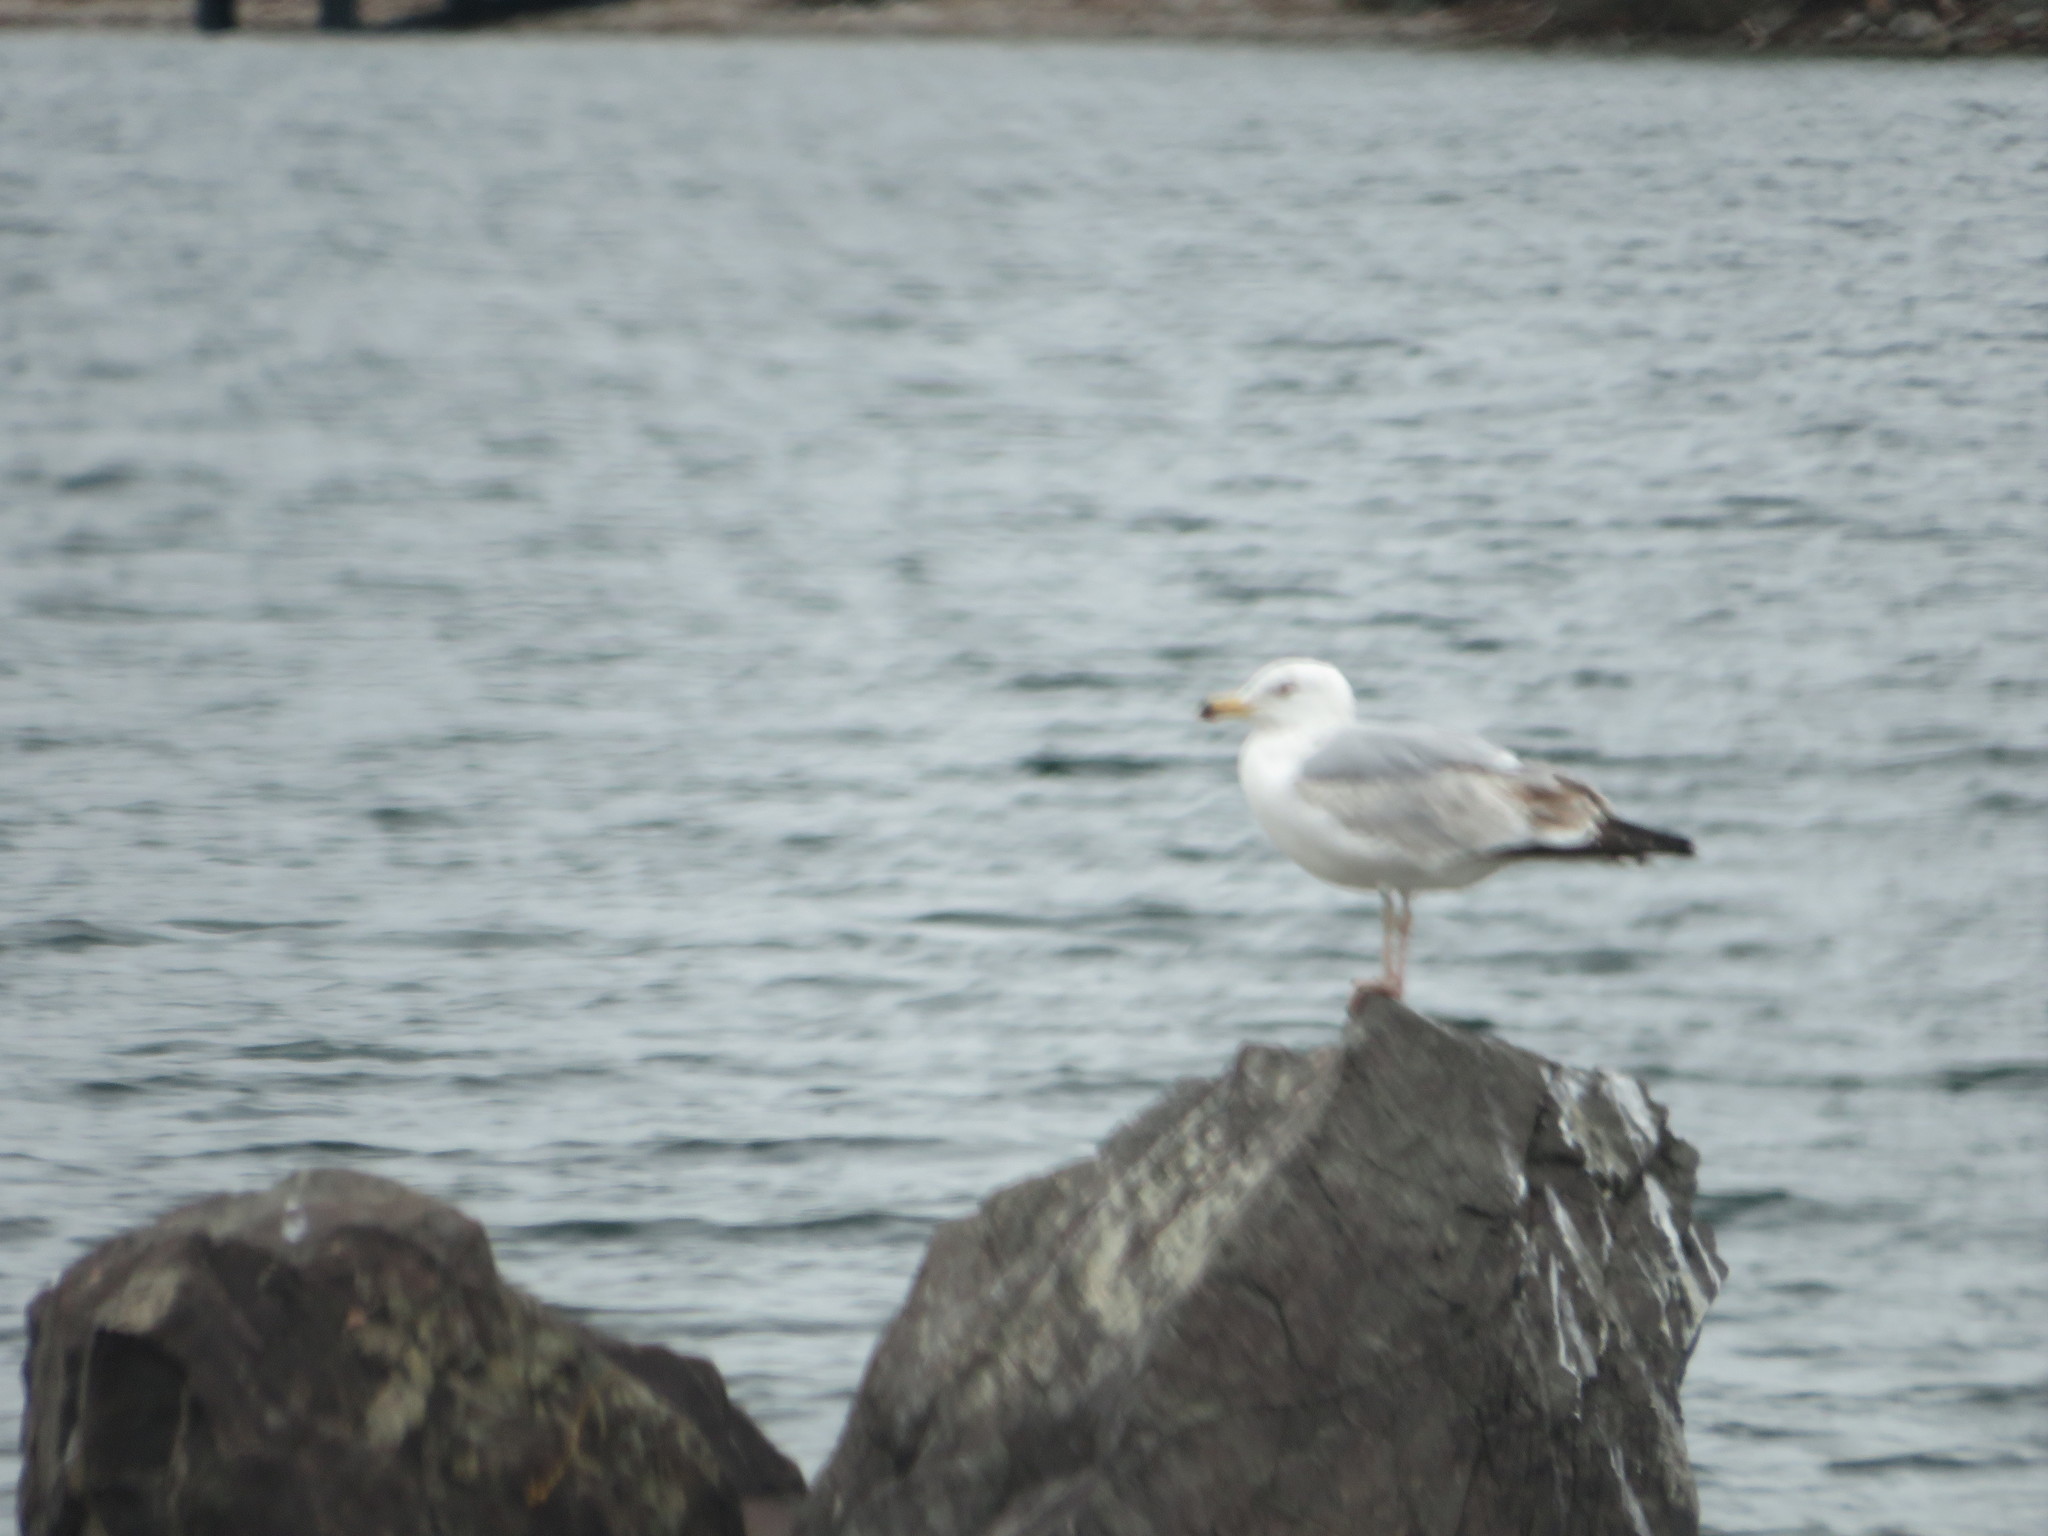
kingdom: Animalia
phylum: Chordata
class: Aves
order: Charadriiformes
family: Laridae
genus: Larus
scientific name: Larus argentatus
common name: Herring gull
